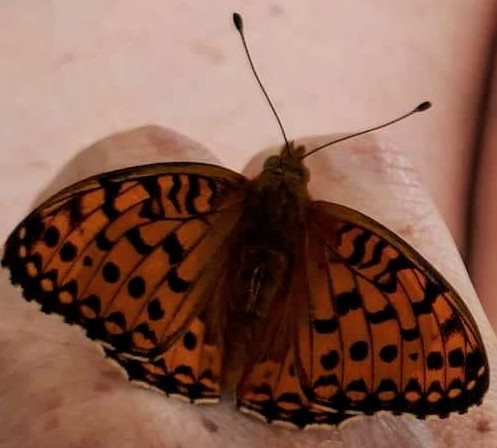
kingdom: Animalia
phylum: Arthropoda
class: Insecta
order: Lepidoptera
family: Nymphalidae
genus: Speyeria
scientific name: Speyeria aglaja
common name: Dark green fritillary
